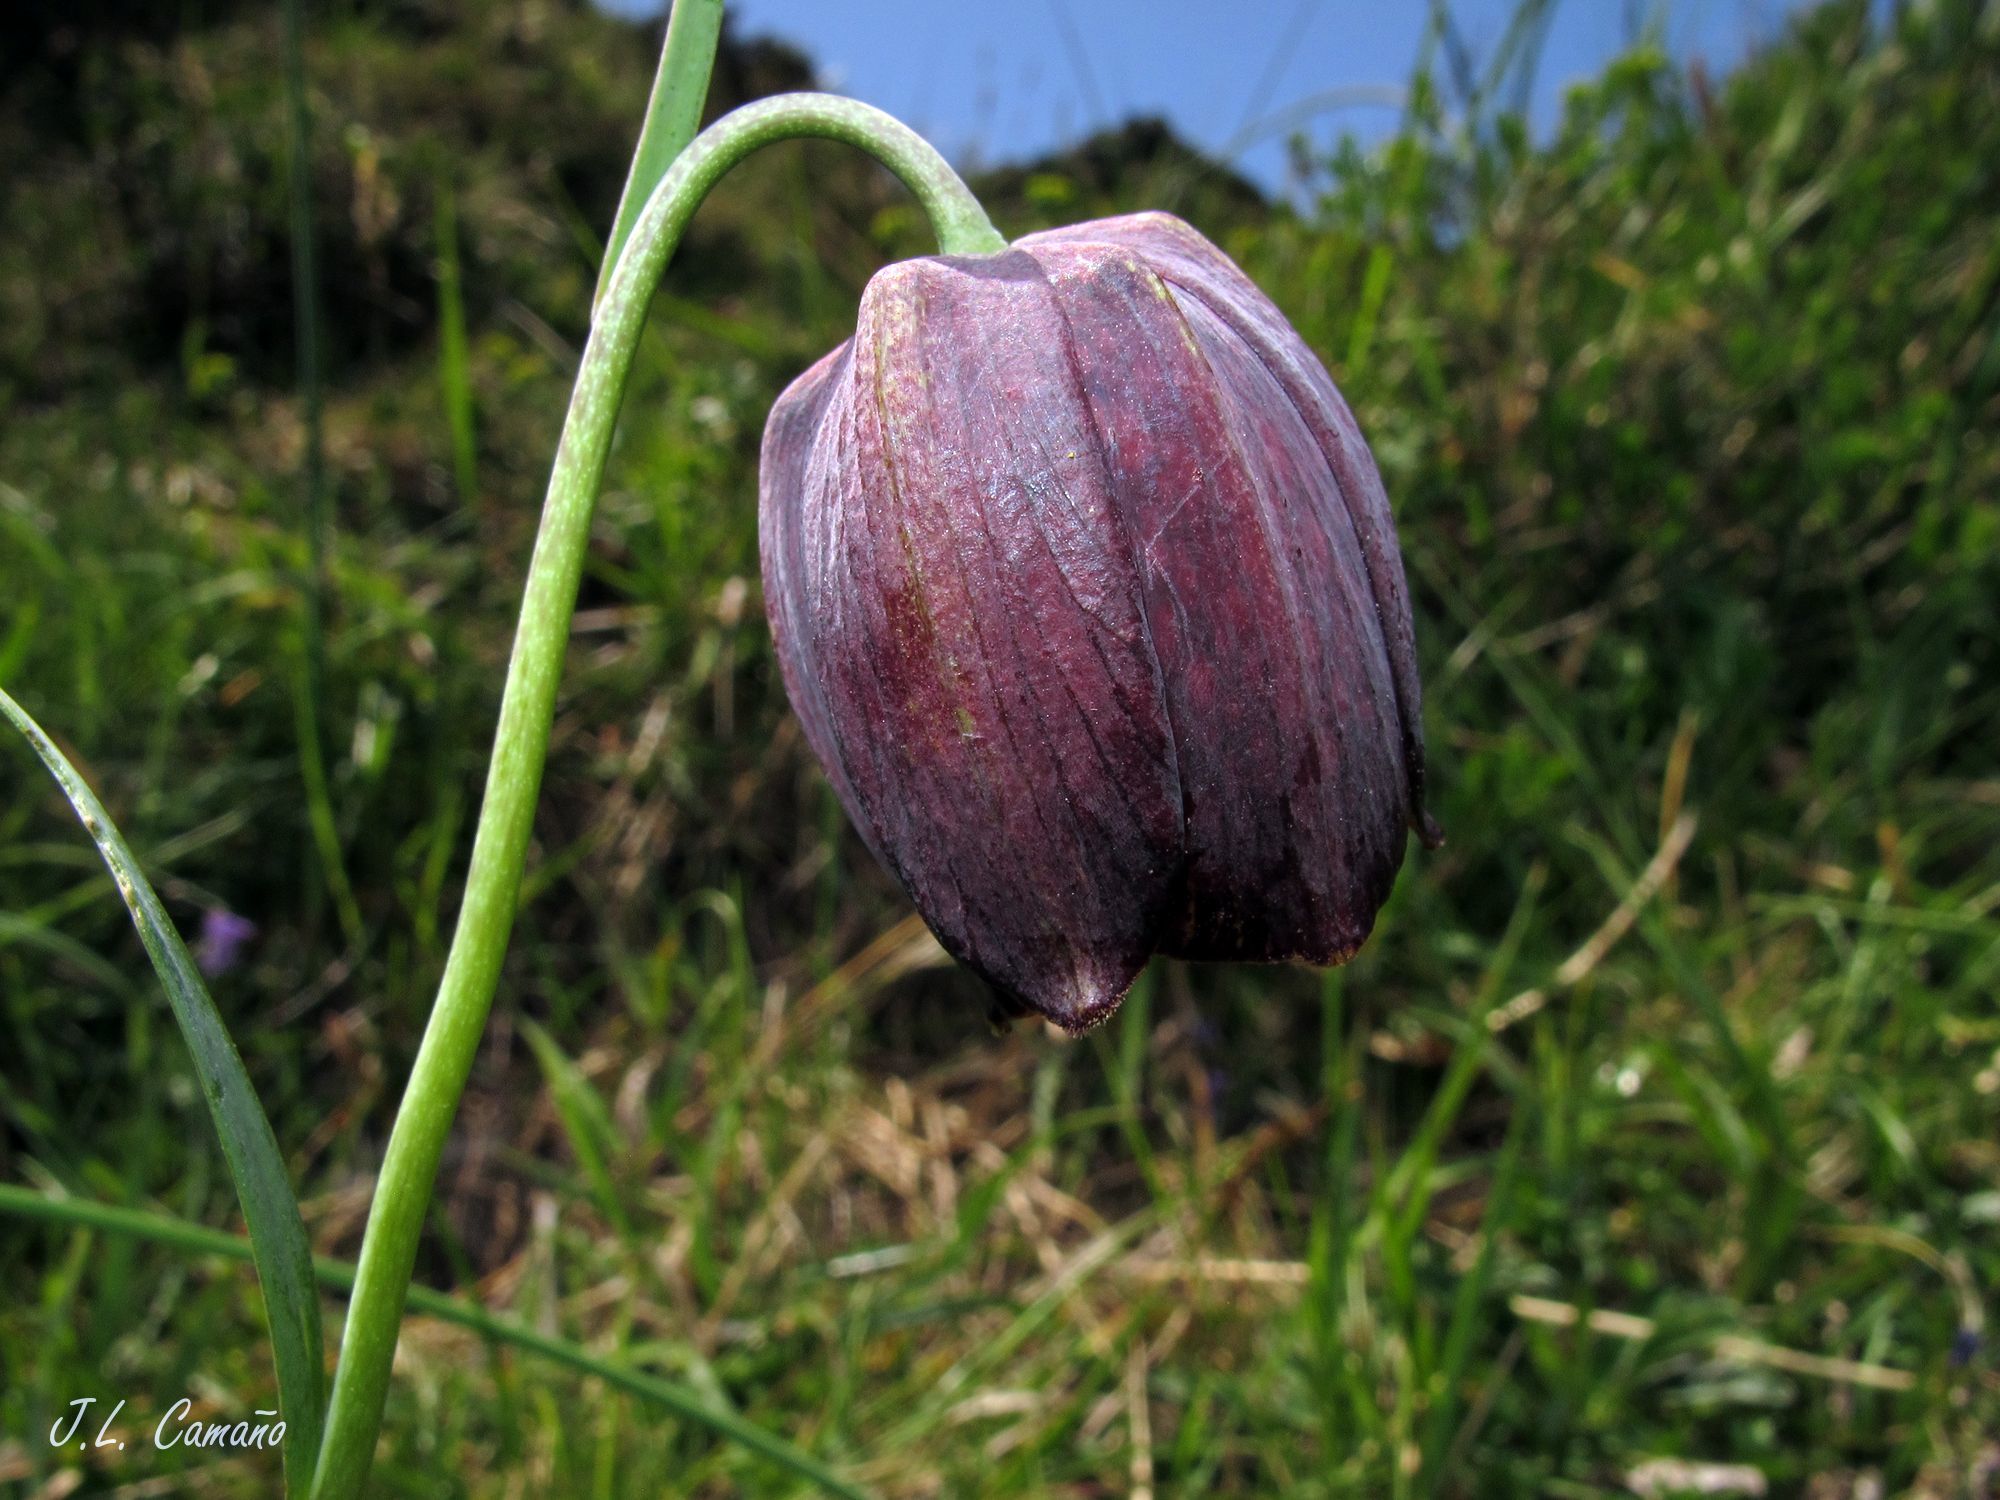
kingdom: Plantae
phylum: Tracheophyta
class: Liliopsida
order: Liliales
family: Liliaceae
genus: Fritillaria
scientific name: Fritillaria pyrenaica
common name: Pyrenean snake's-head
